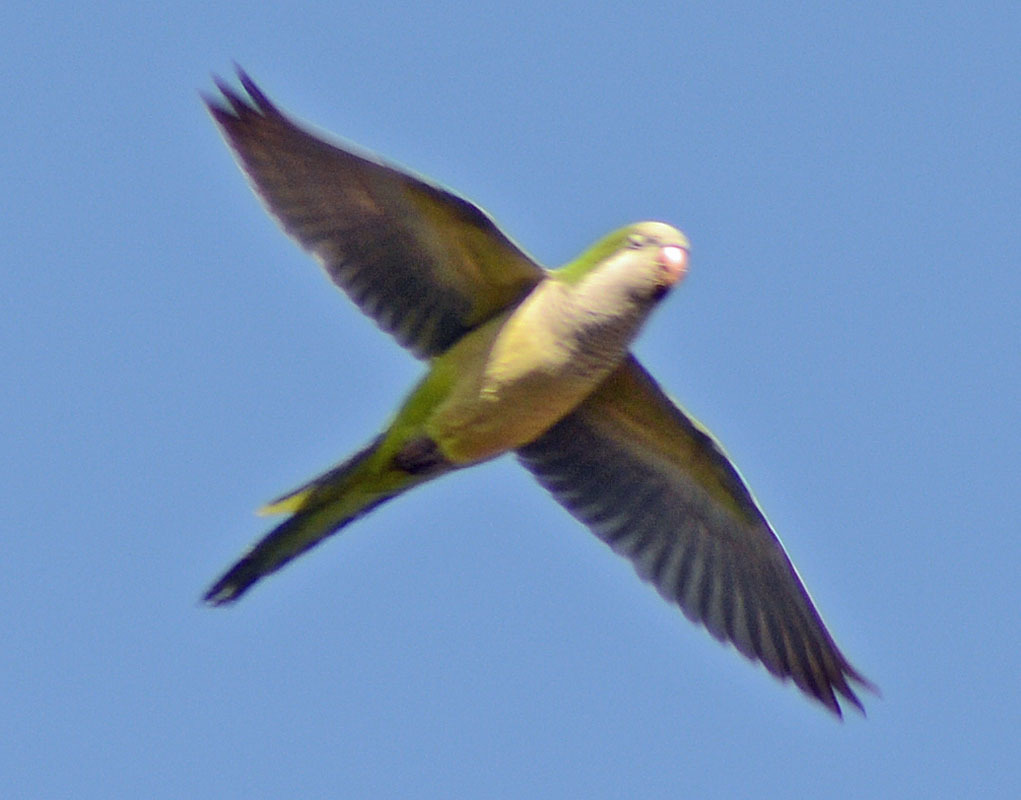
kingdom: Animalia
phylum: Chordata
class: Aves
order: Psittaciformes
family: Psittacidae
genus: Myiopsitta
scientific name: Myiopsitta monachus
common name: Monk parakeet
